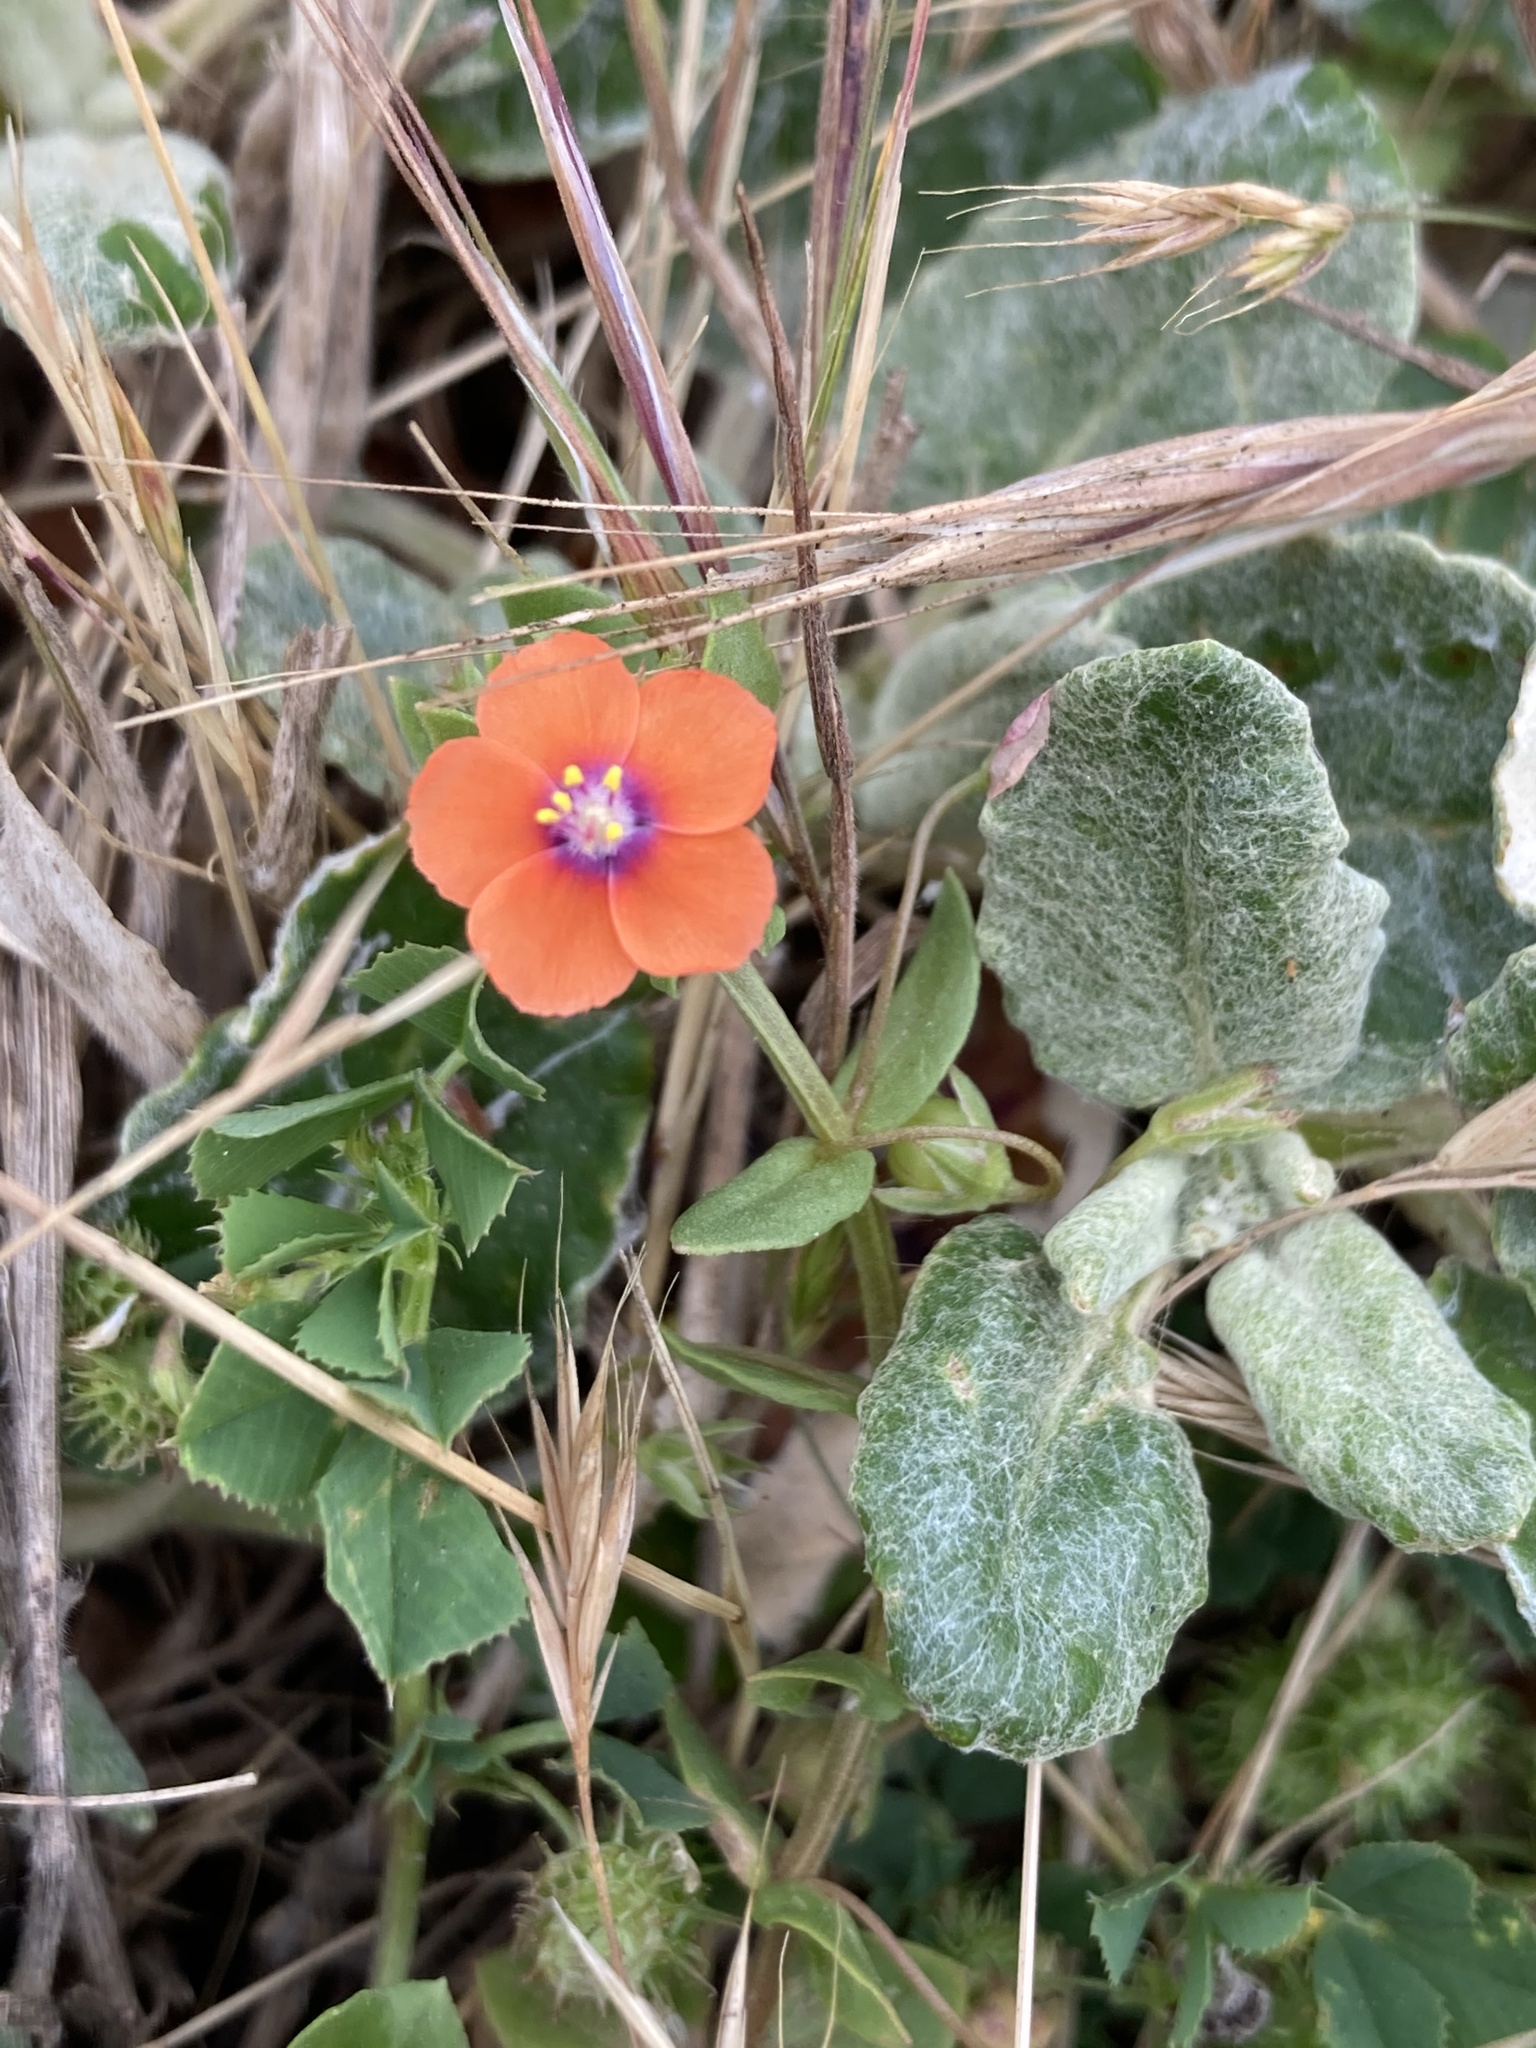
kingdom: Plantae
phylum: Tracheophyta
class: Magnoliopsida
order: Ericales
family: Primulaceae
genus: Lysimachia
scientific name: Lysimachia arvensis
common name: Scarlet pimpernel
